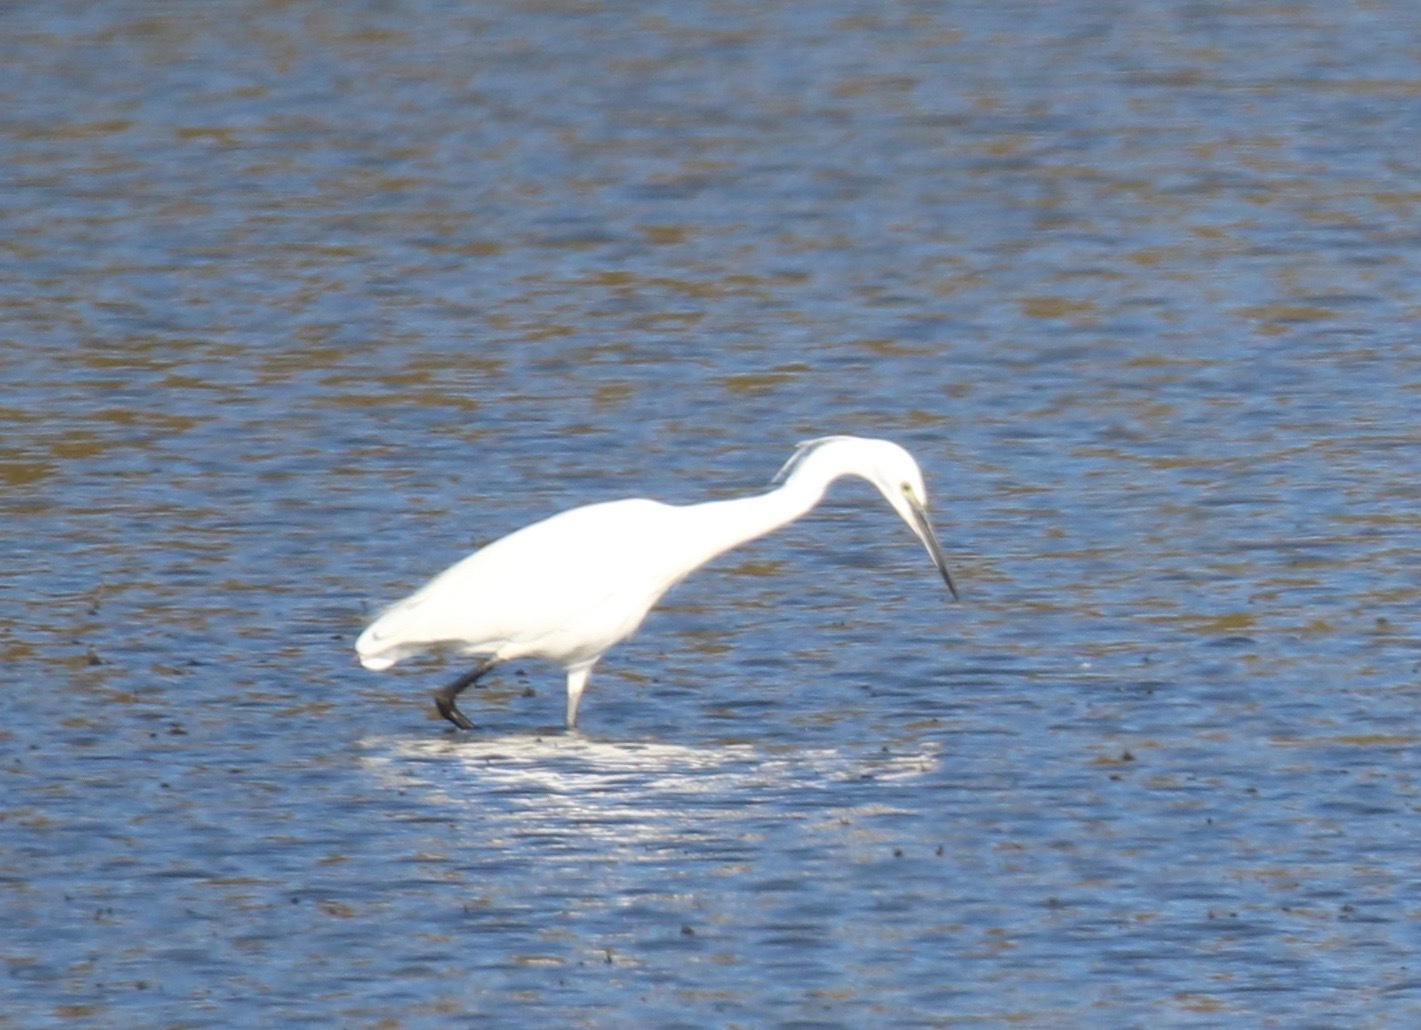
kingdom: Animalia
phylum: Chordata
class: Aves
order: Pelecaniformes
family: Ardeidae
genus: Egretta
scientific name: Egretta garzetta
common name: Little egret
